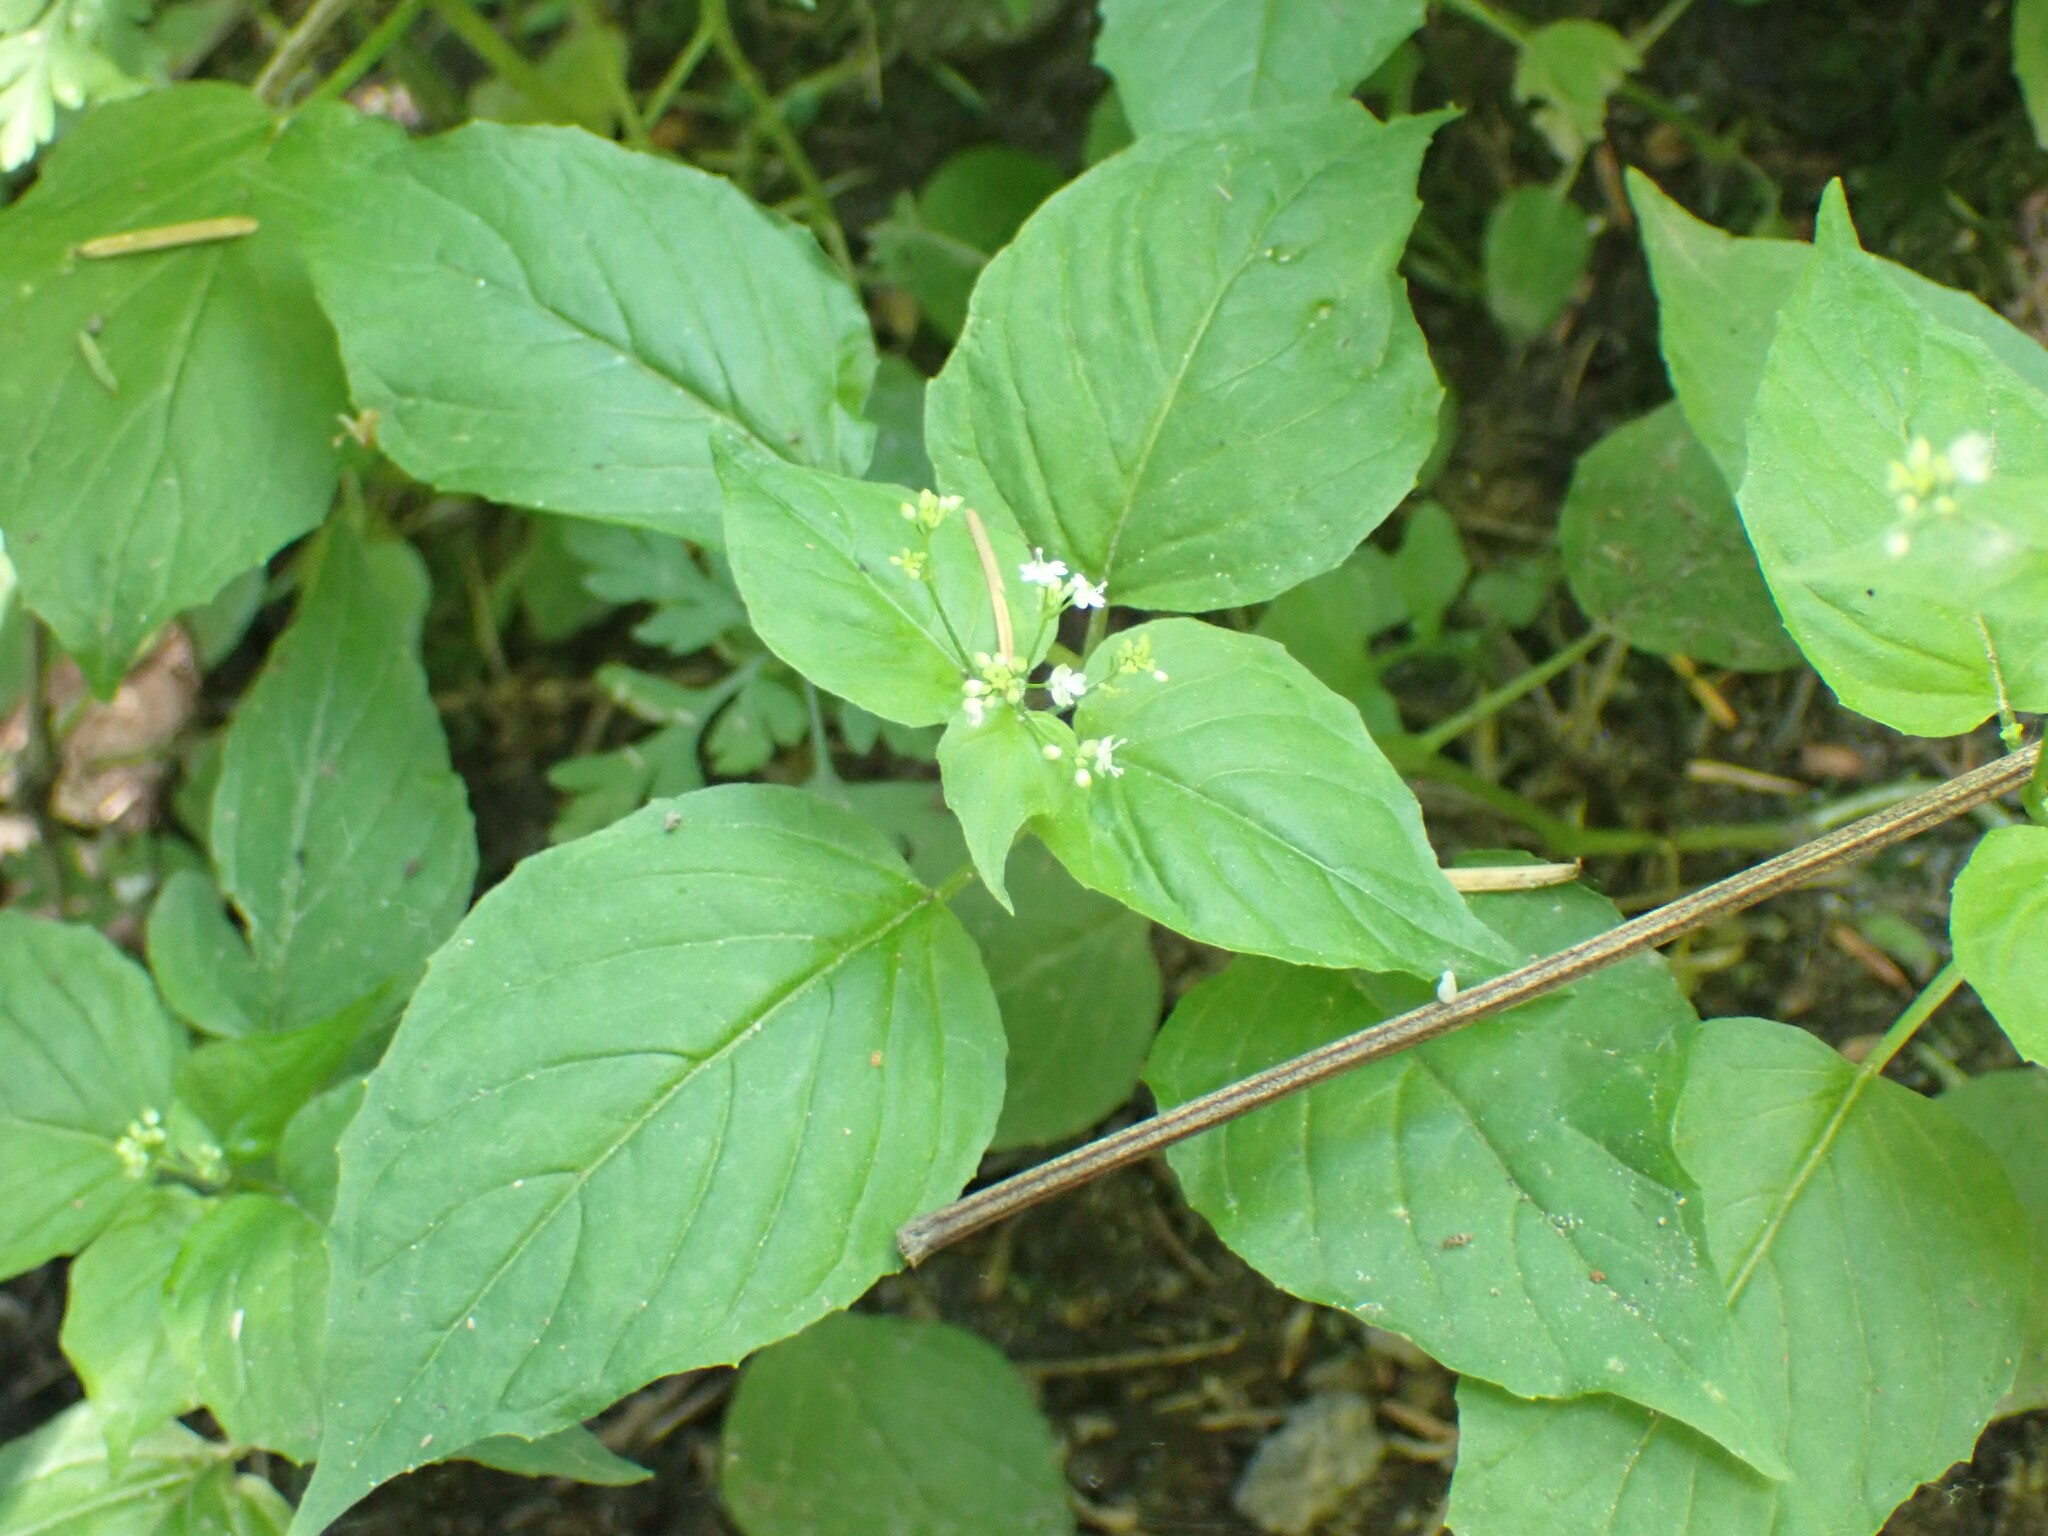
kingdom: Plantae
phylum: Tracheophyta
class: Magnoliopsida
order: Myrtales
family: Onagraceae
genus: Circaea
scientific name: Circaea alpina
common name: Alpine enchanter's-nightshade
